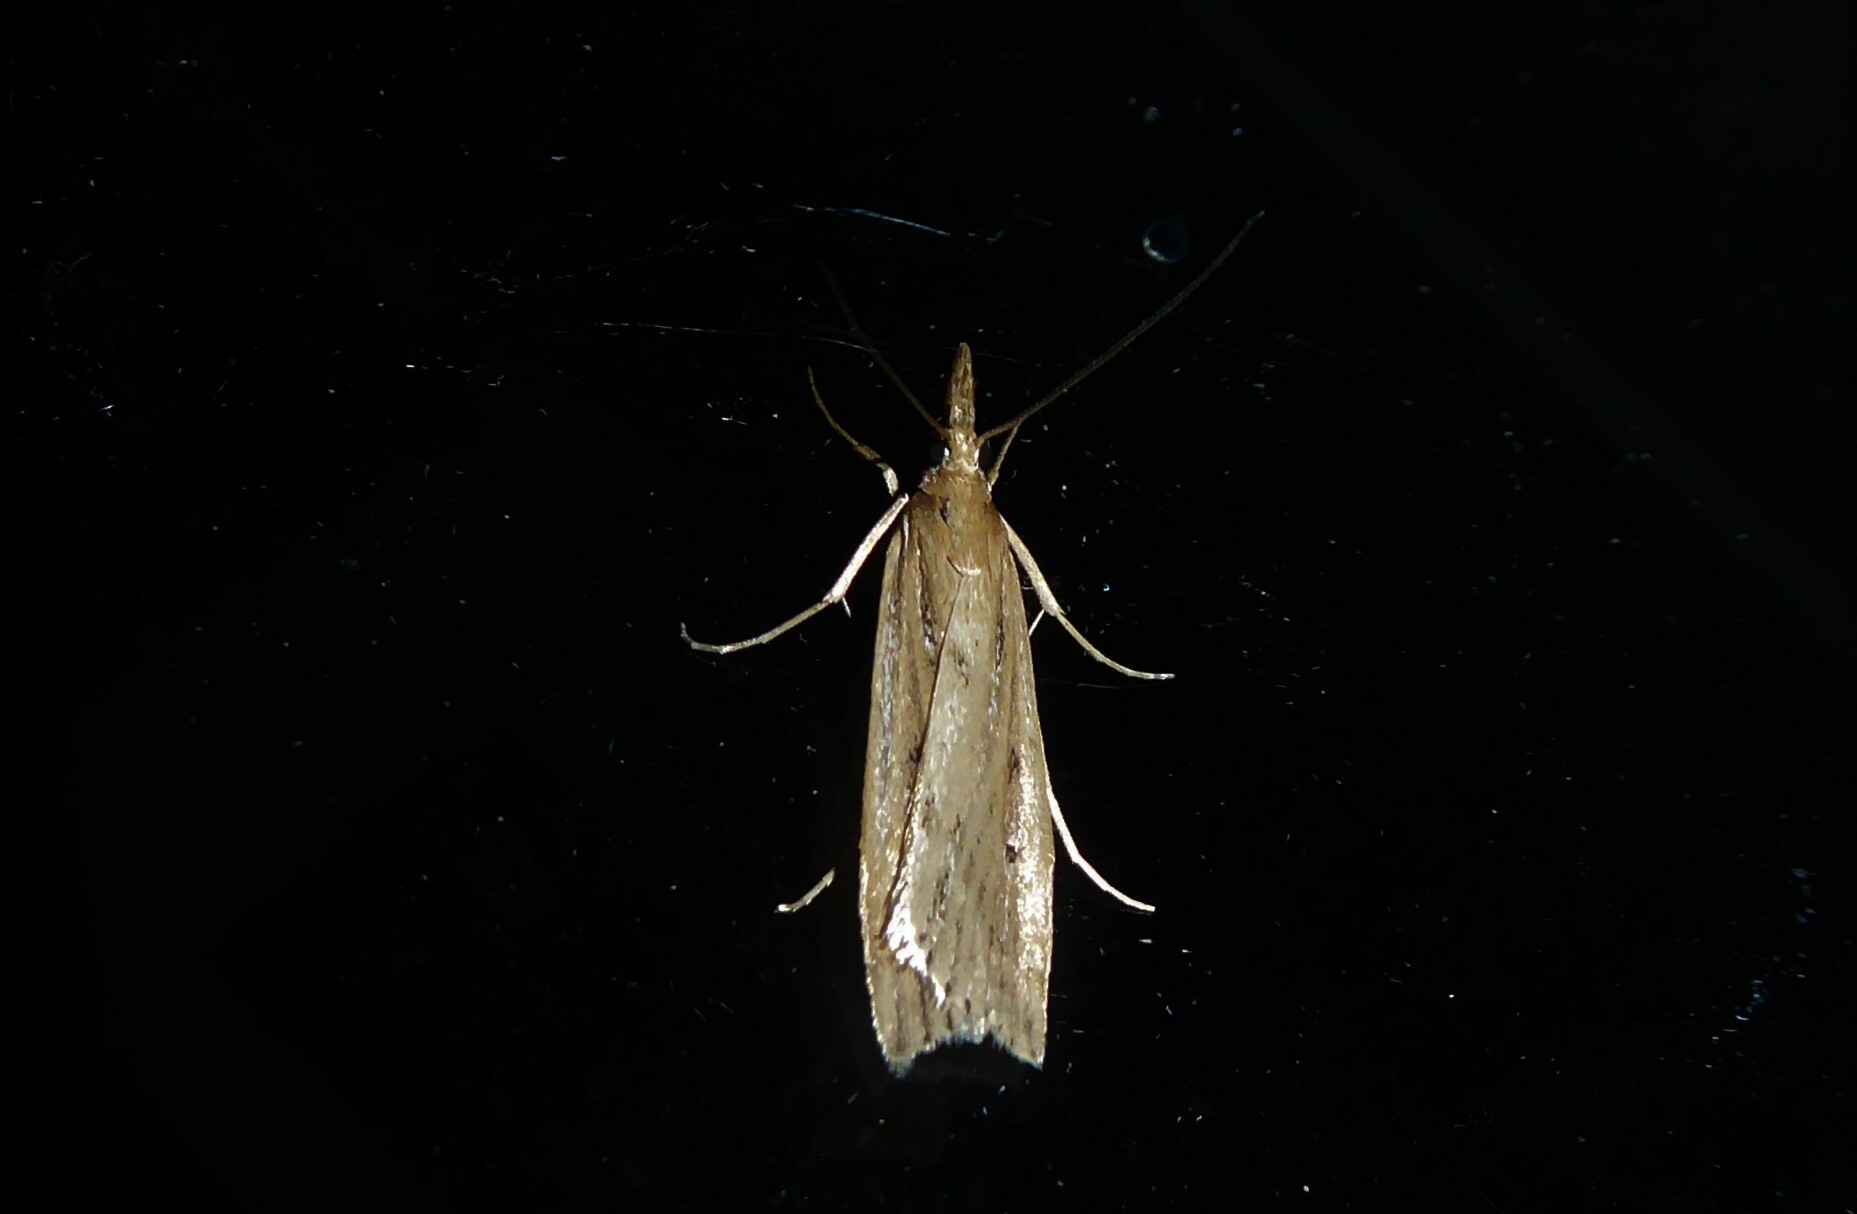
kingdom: Animalia
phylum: Arthropoda
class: Insecta
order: Lepidoptera
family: Crambidae
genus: Eudonia
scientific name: Eudonia sabulosella
